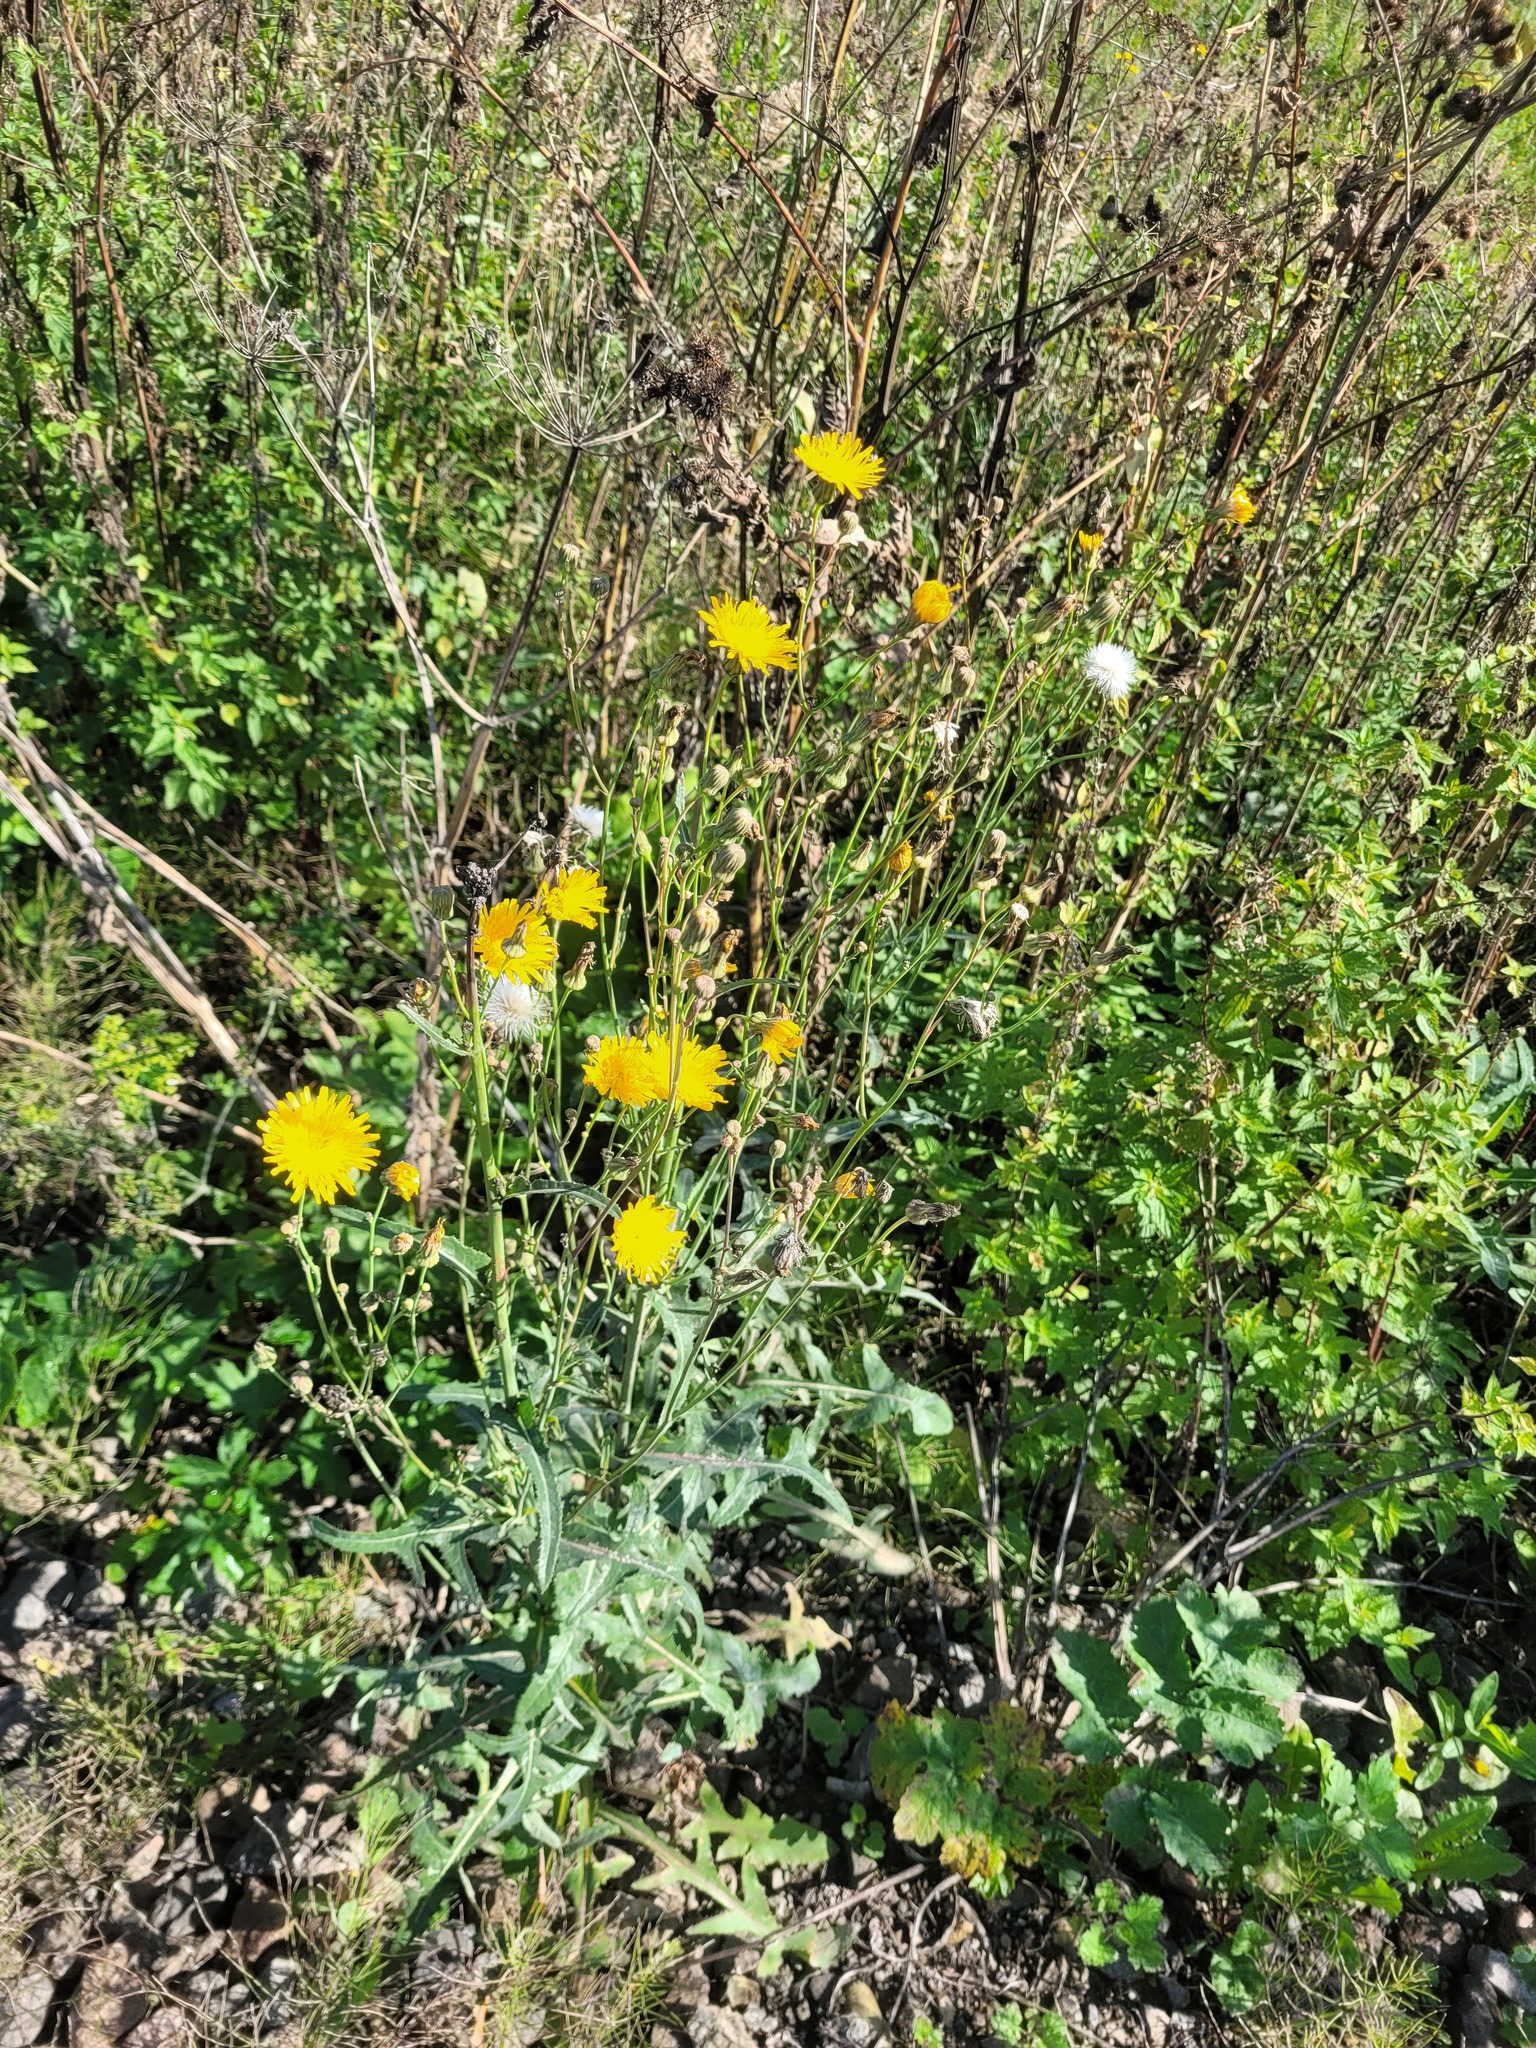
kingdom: Plantae
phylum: Tracheophyta
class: Magnoliopsida
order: Asterales
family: Asteraceae
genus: Sonchus
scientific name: Sonchus arvensis
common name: Perennial sow-thistle
